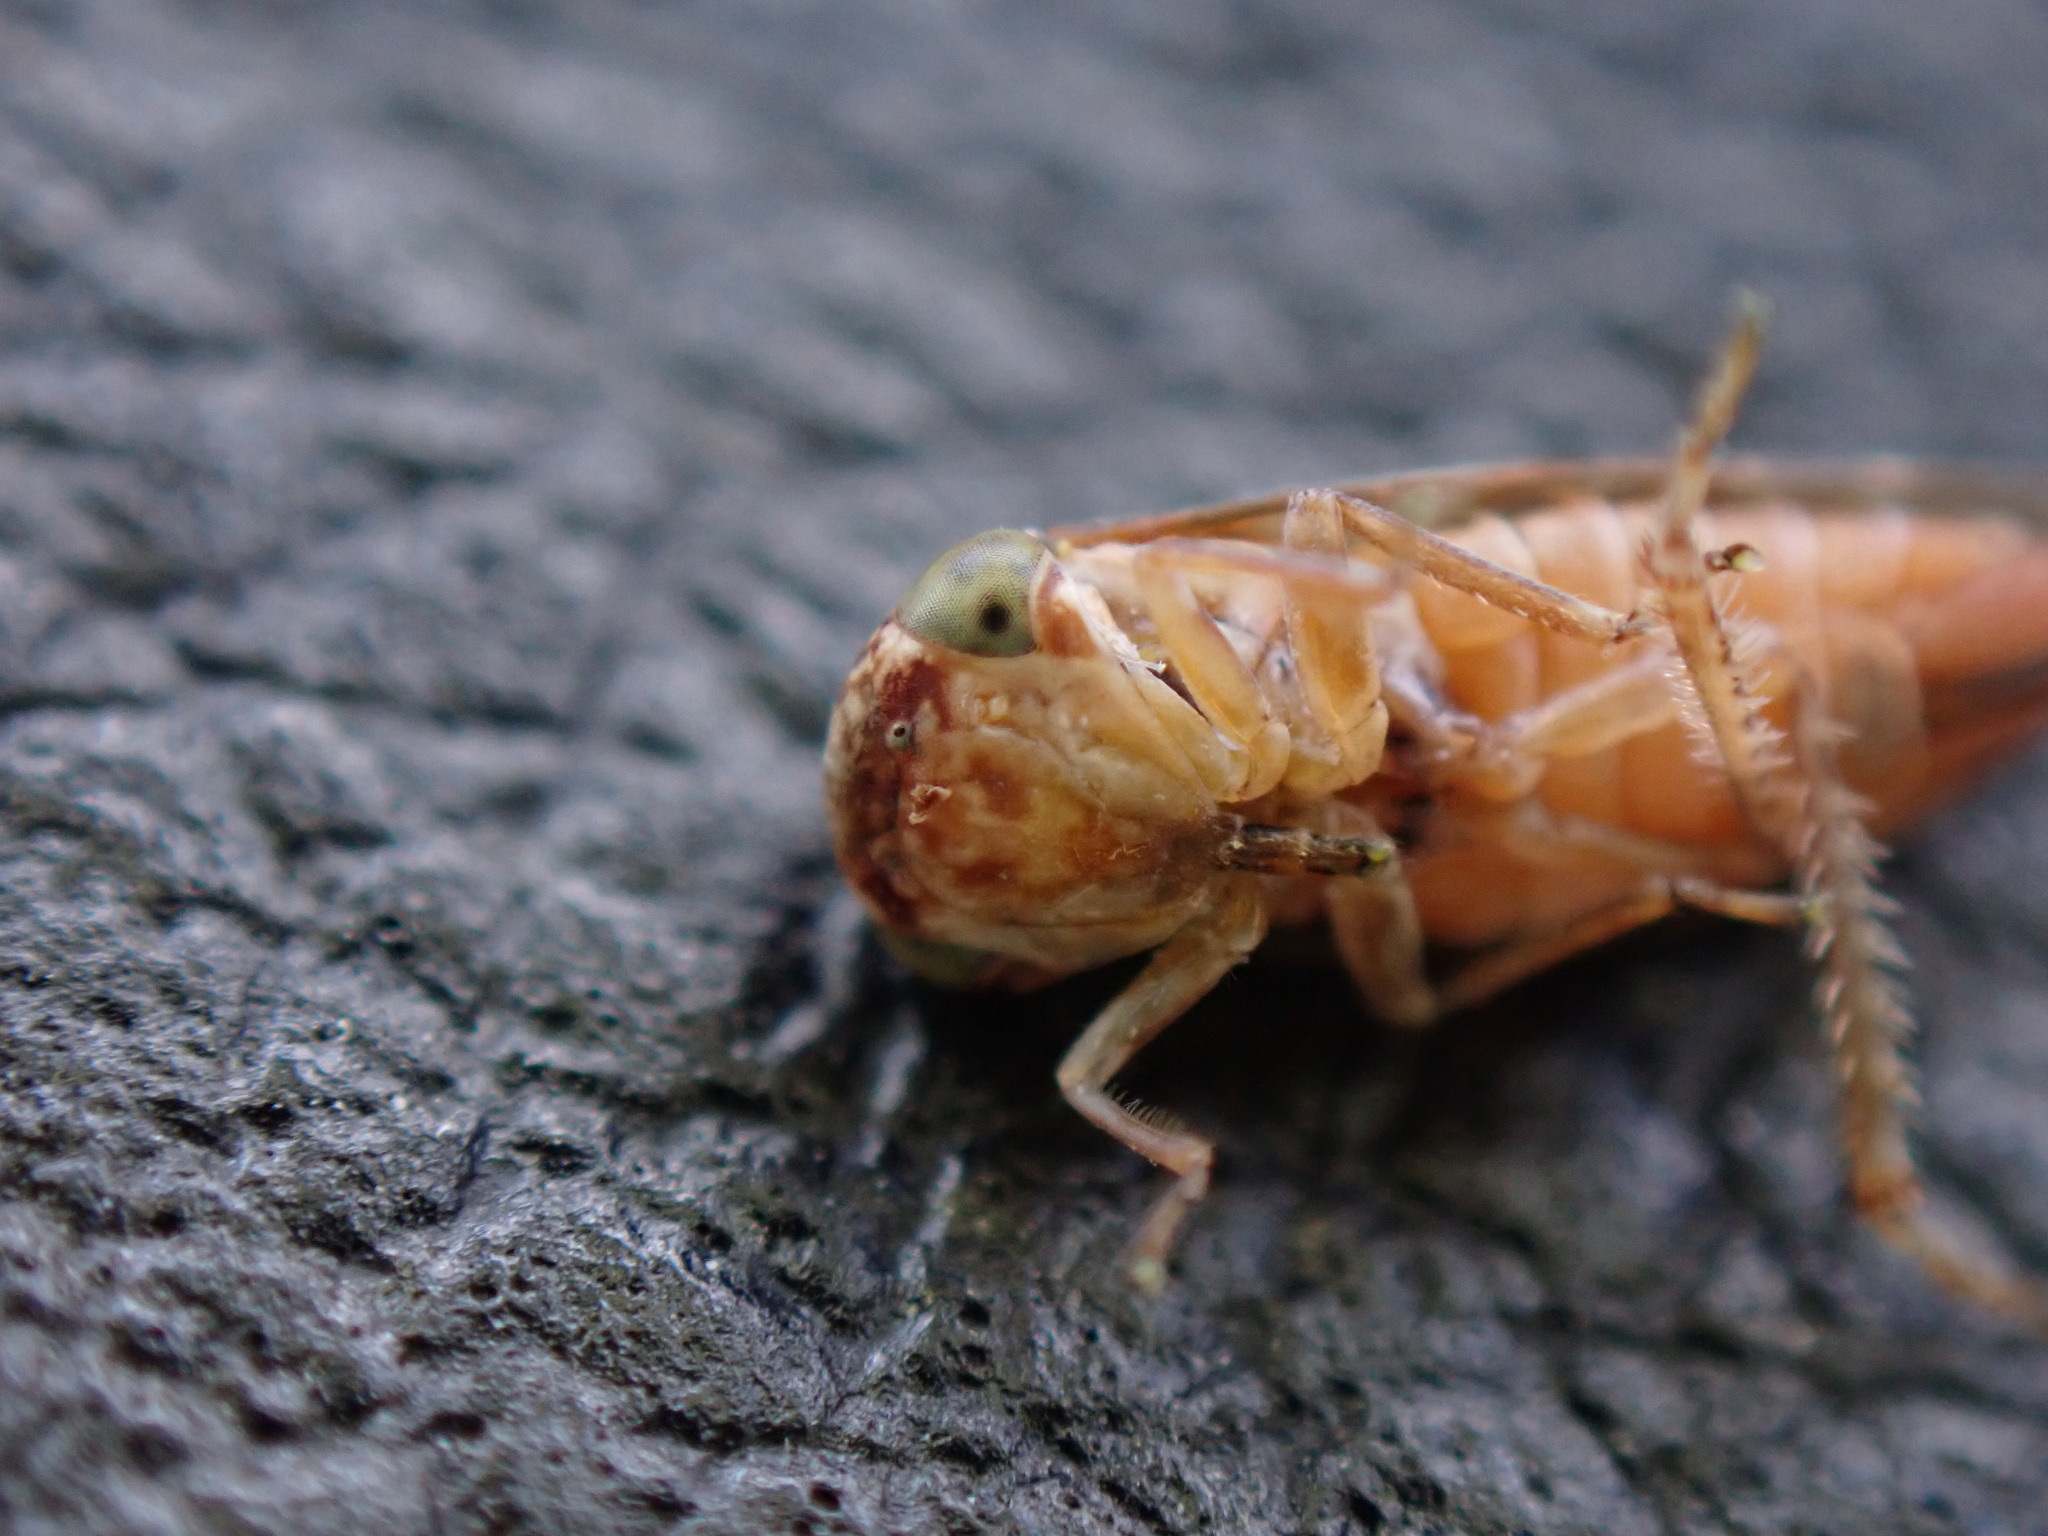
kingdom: Animalia
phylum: Arthropoda
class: Insecta
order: Hemiptera
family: Cicadellidae
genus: Acericerus
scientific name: Acericerus ribauti
